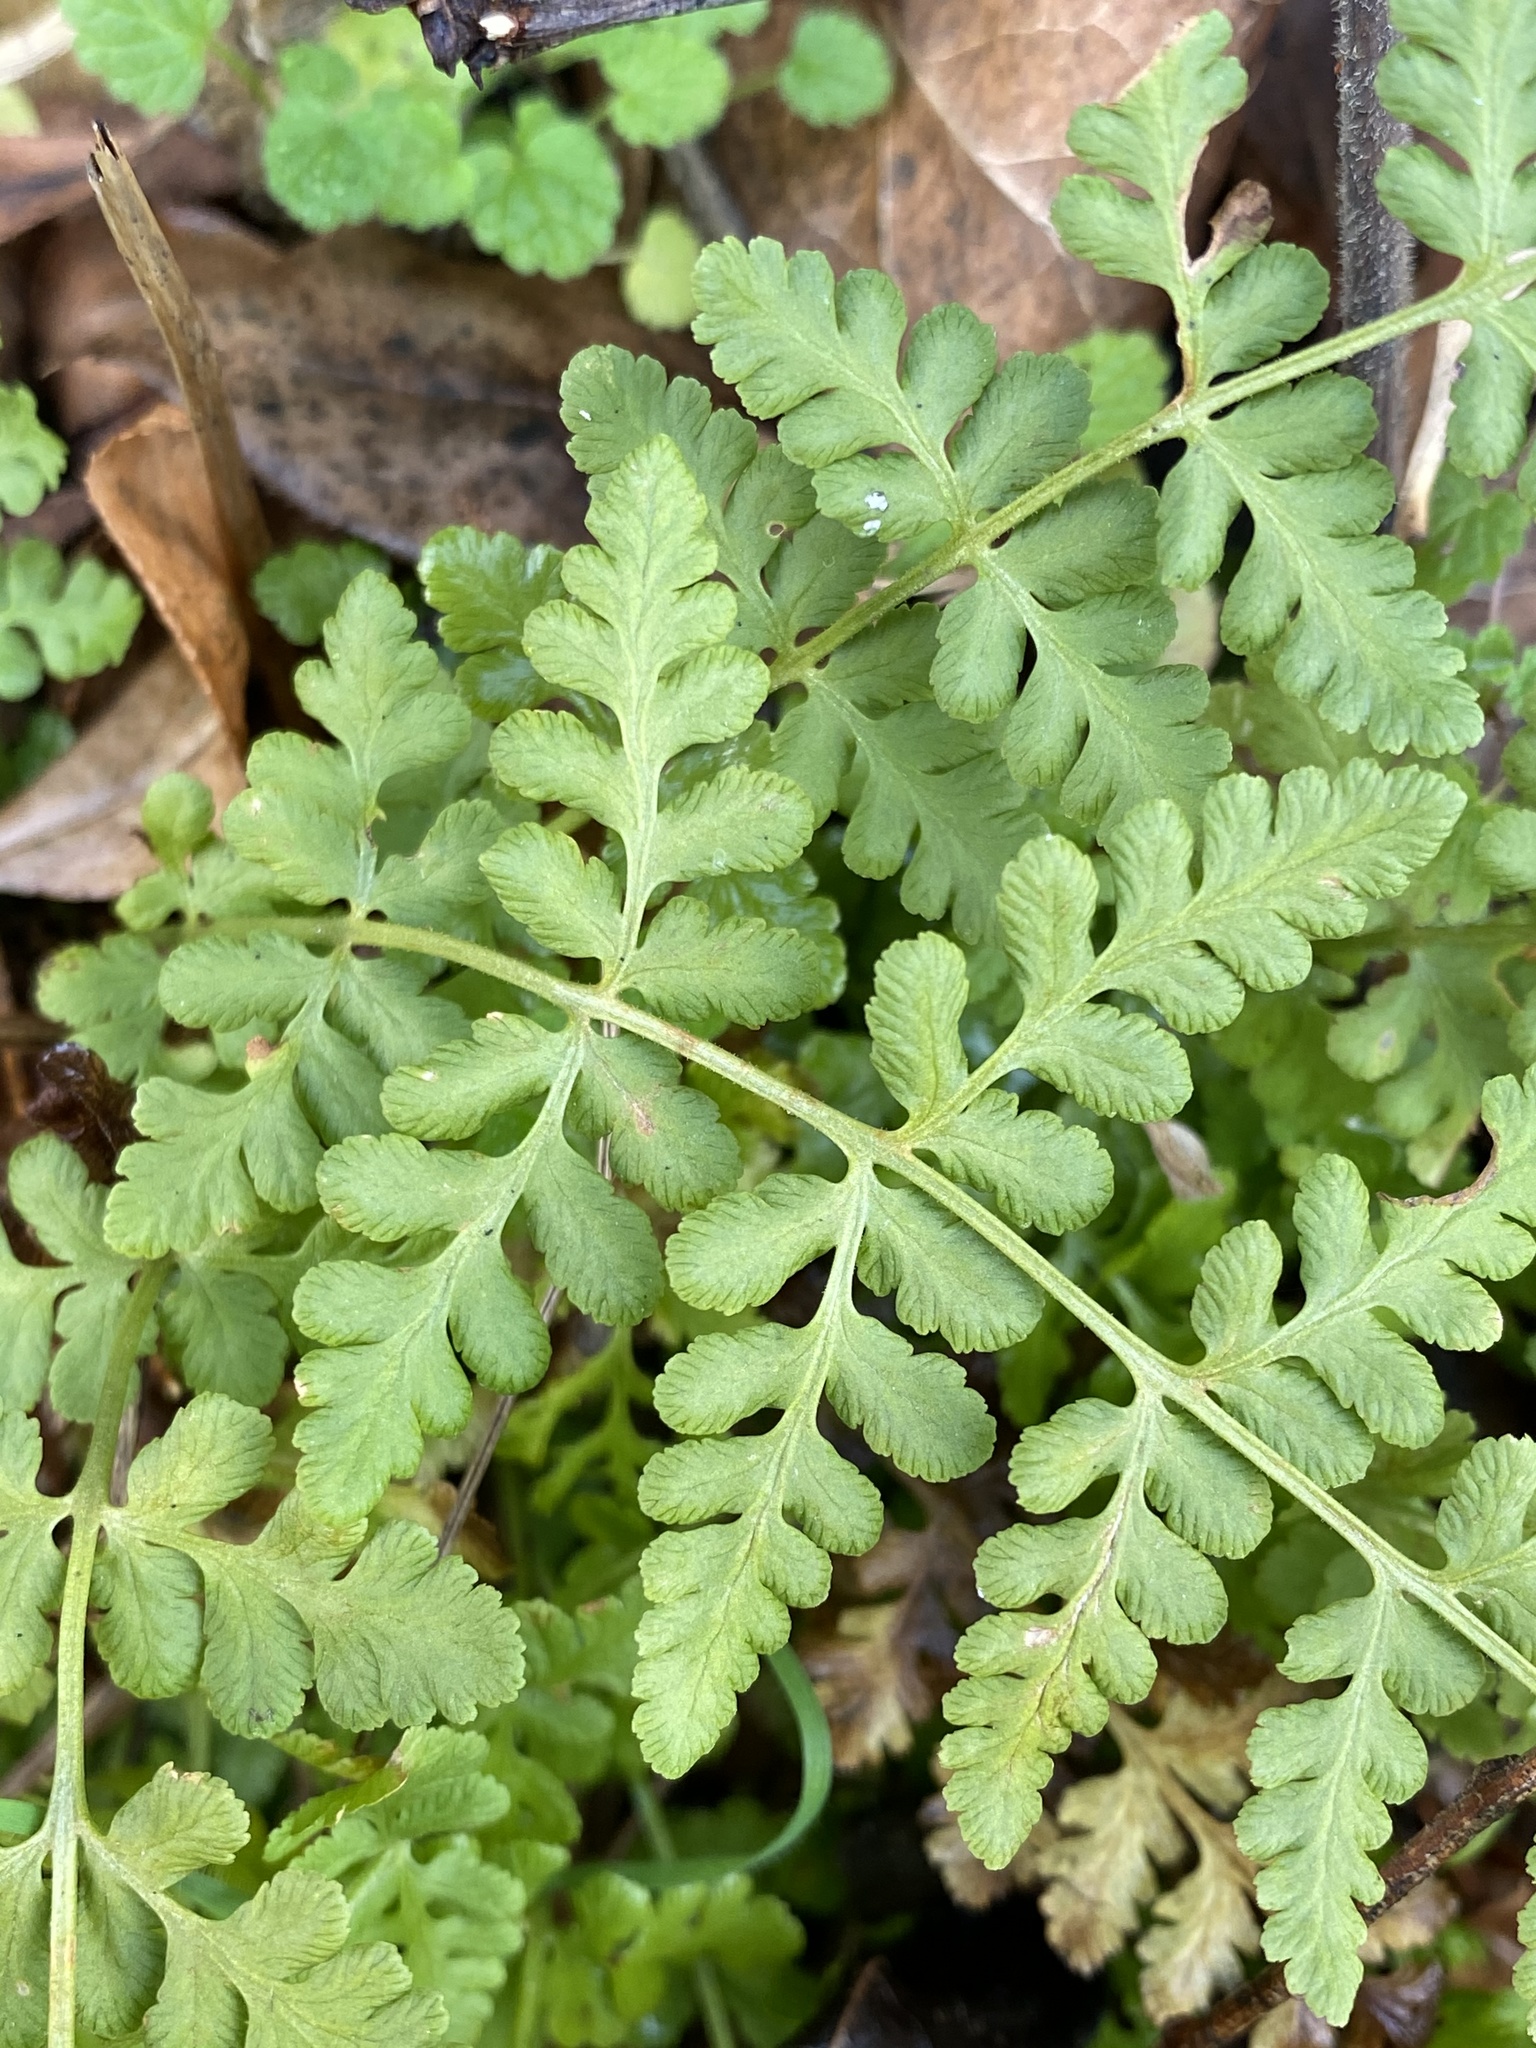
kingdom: Plantae
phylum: Tracheophyta
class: Polypodiopsida
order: Polypodiales
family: Woodsiaceae
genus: Physematium
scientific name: Physematium obtusum
